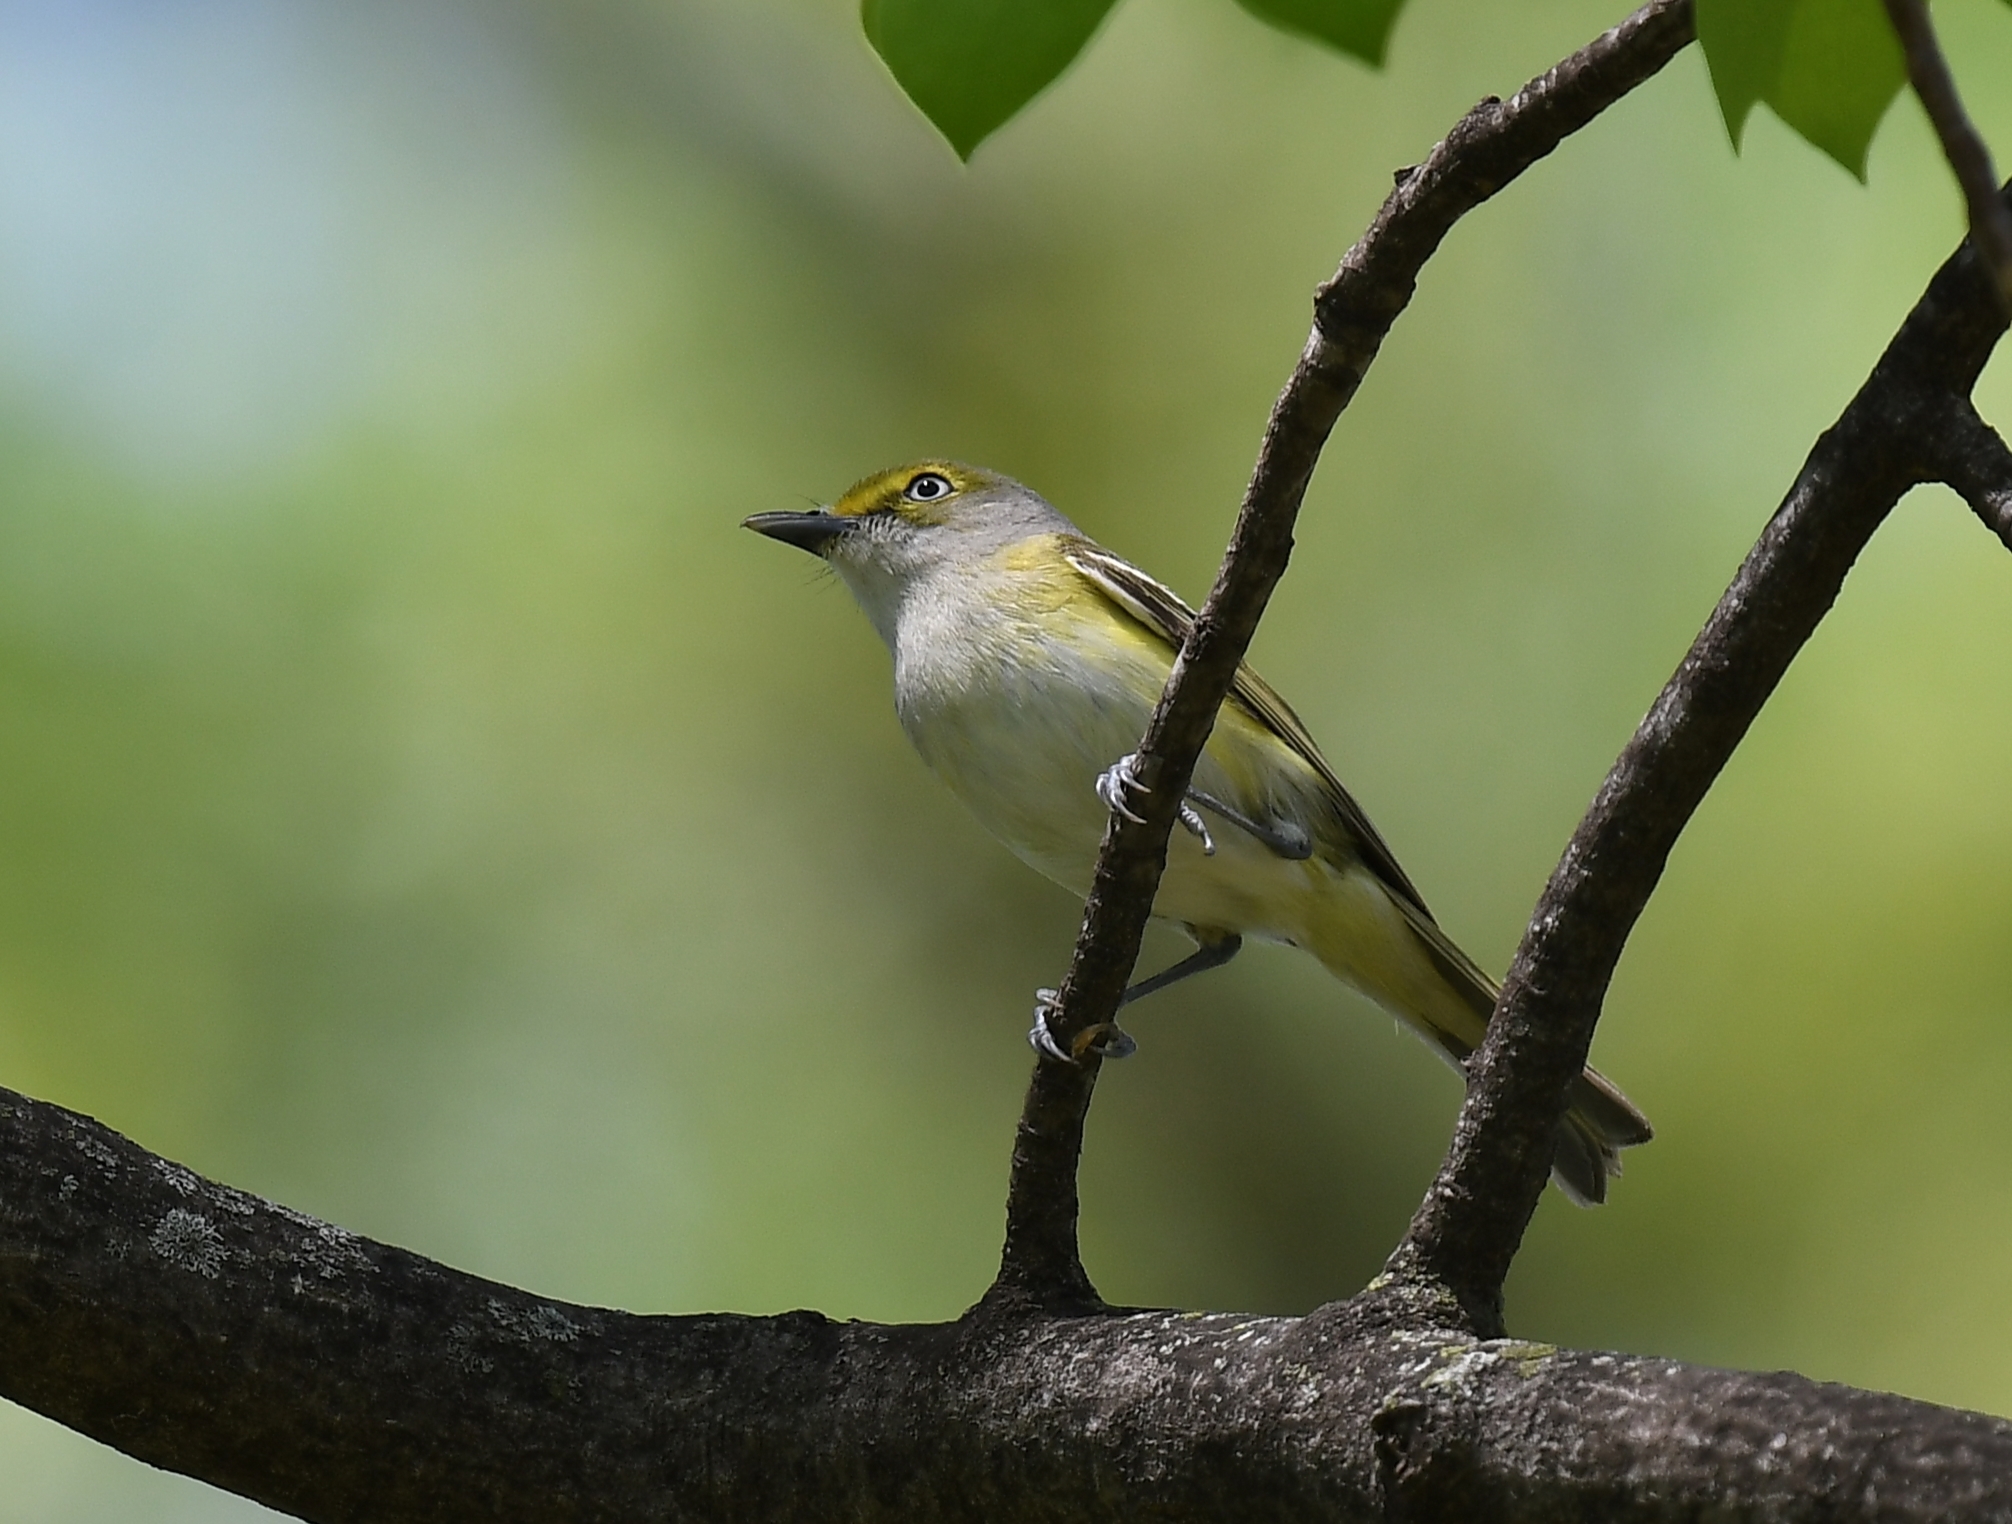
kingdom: Animalia
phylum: Chordata
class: Aves
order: Passeriformes
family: Vireonidae
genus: Vireo
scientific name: Vireo griseus
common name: White-eyed vireo
